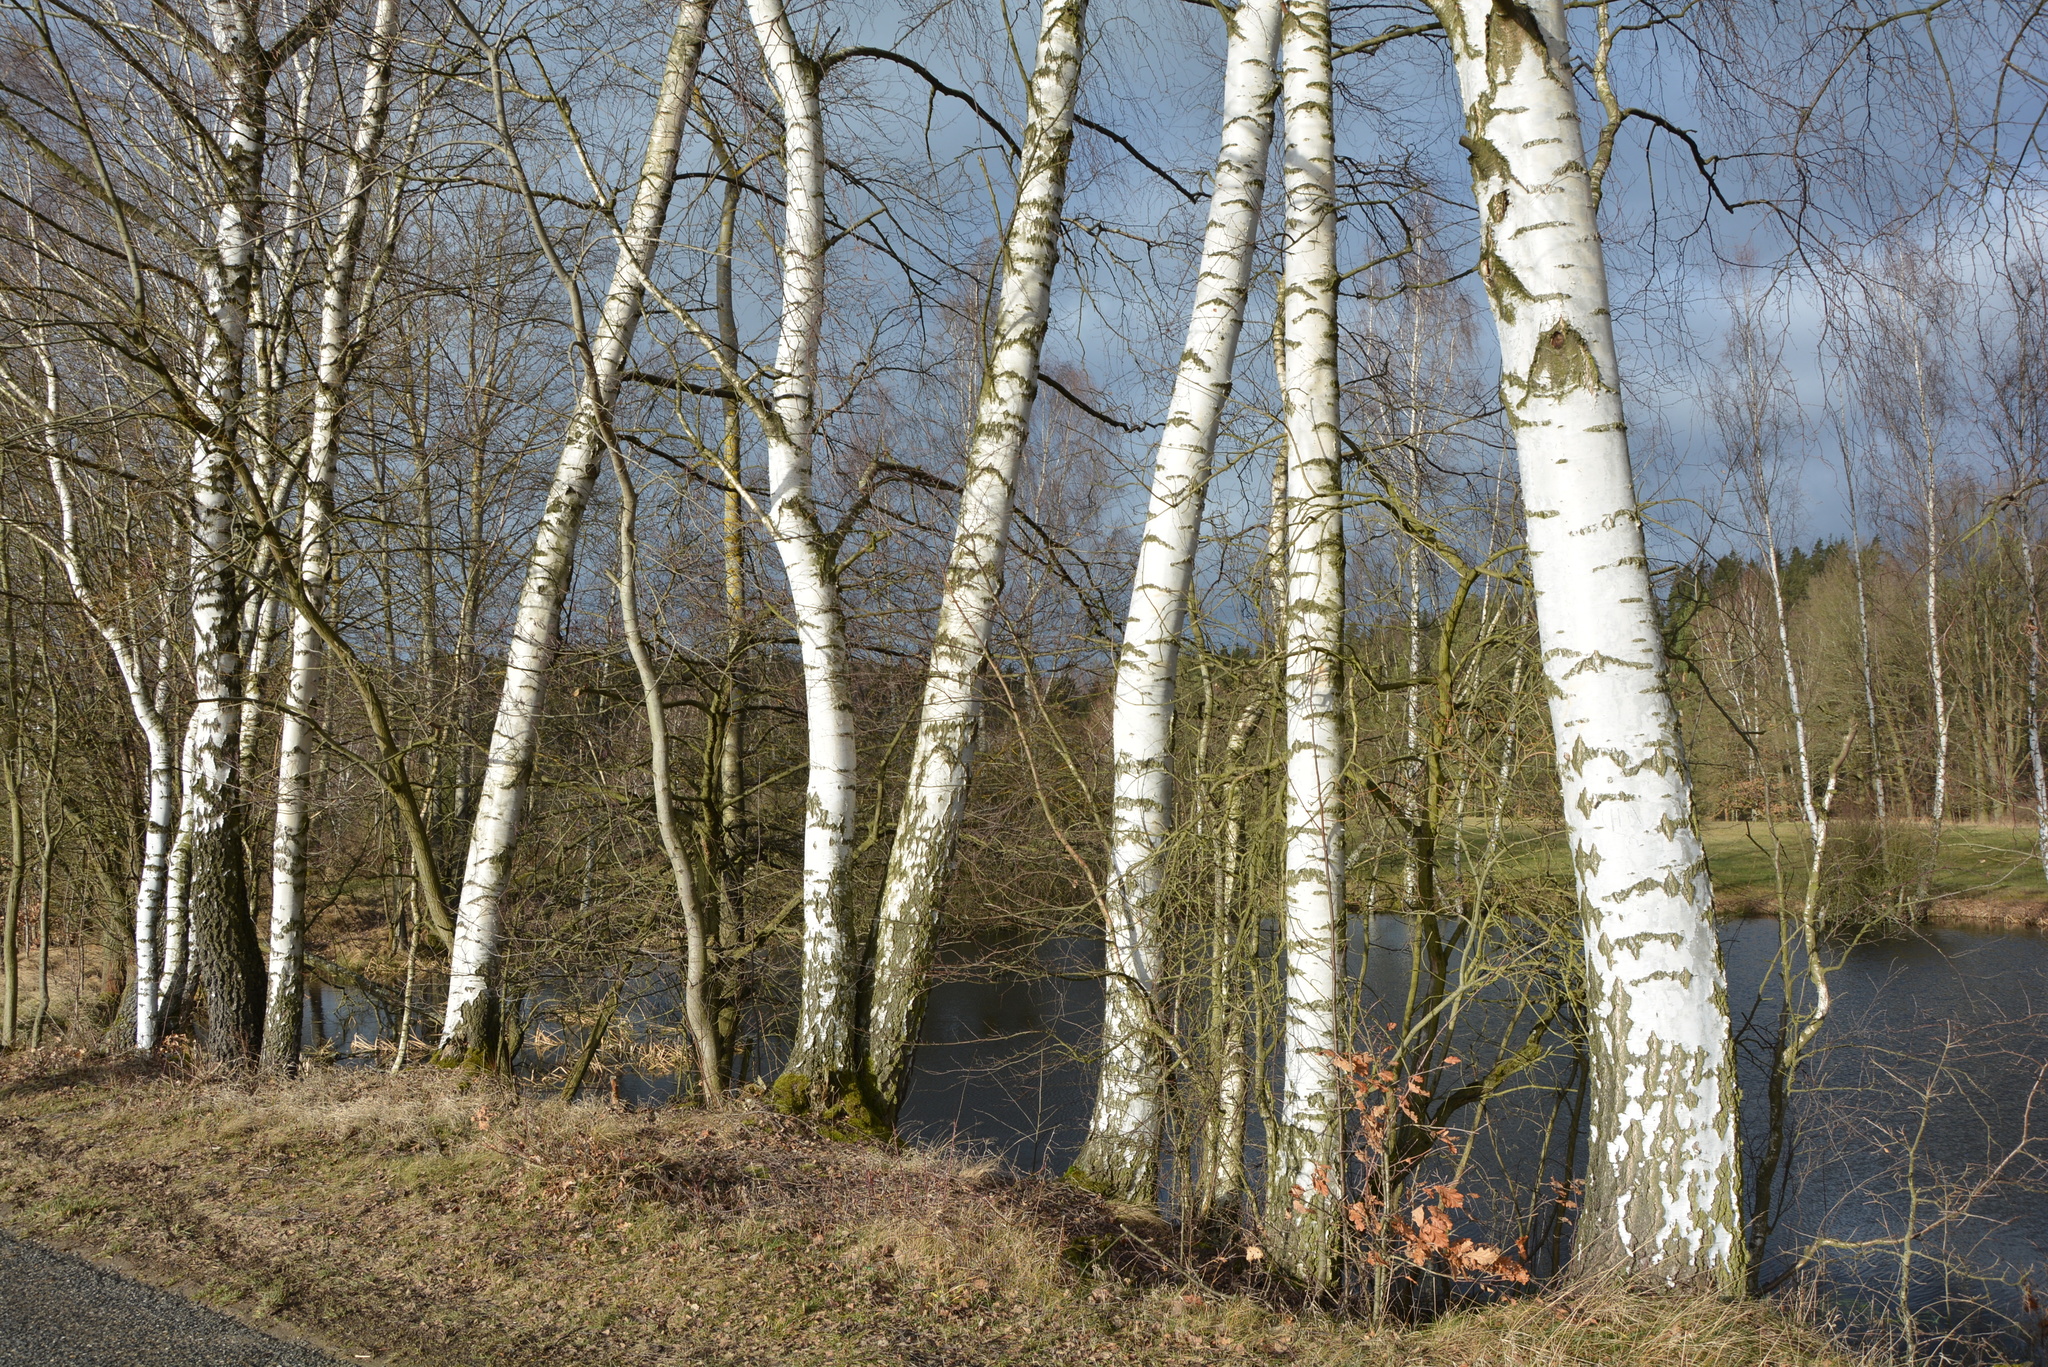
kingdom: Plantae
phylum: Tracheophyta
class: Magnoliopsida
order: Fagales
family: Betulaceae
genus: Betula
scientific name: Betula pendula
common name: Silver birch
